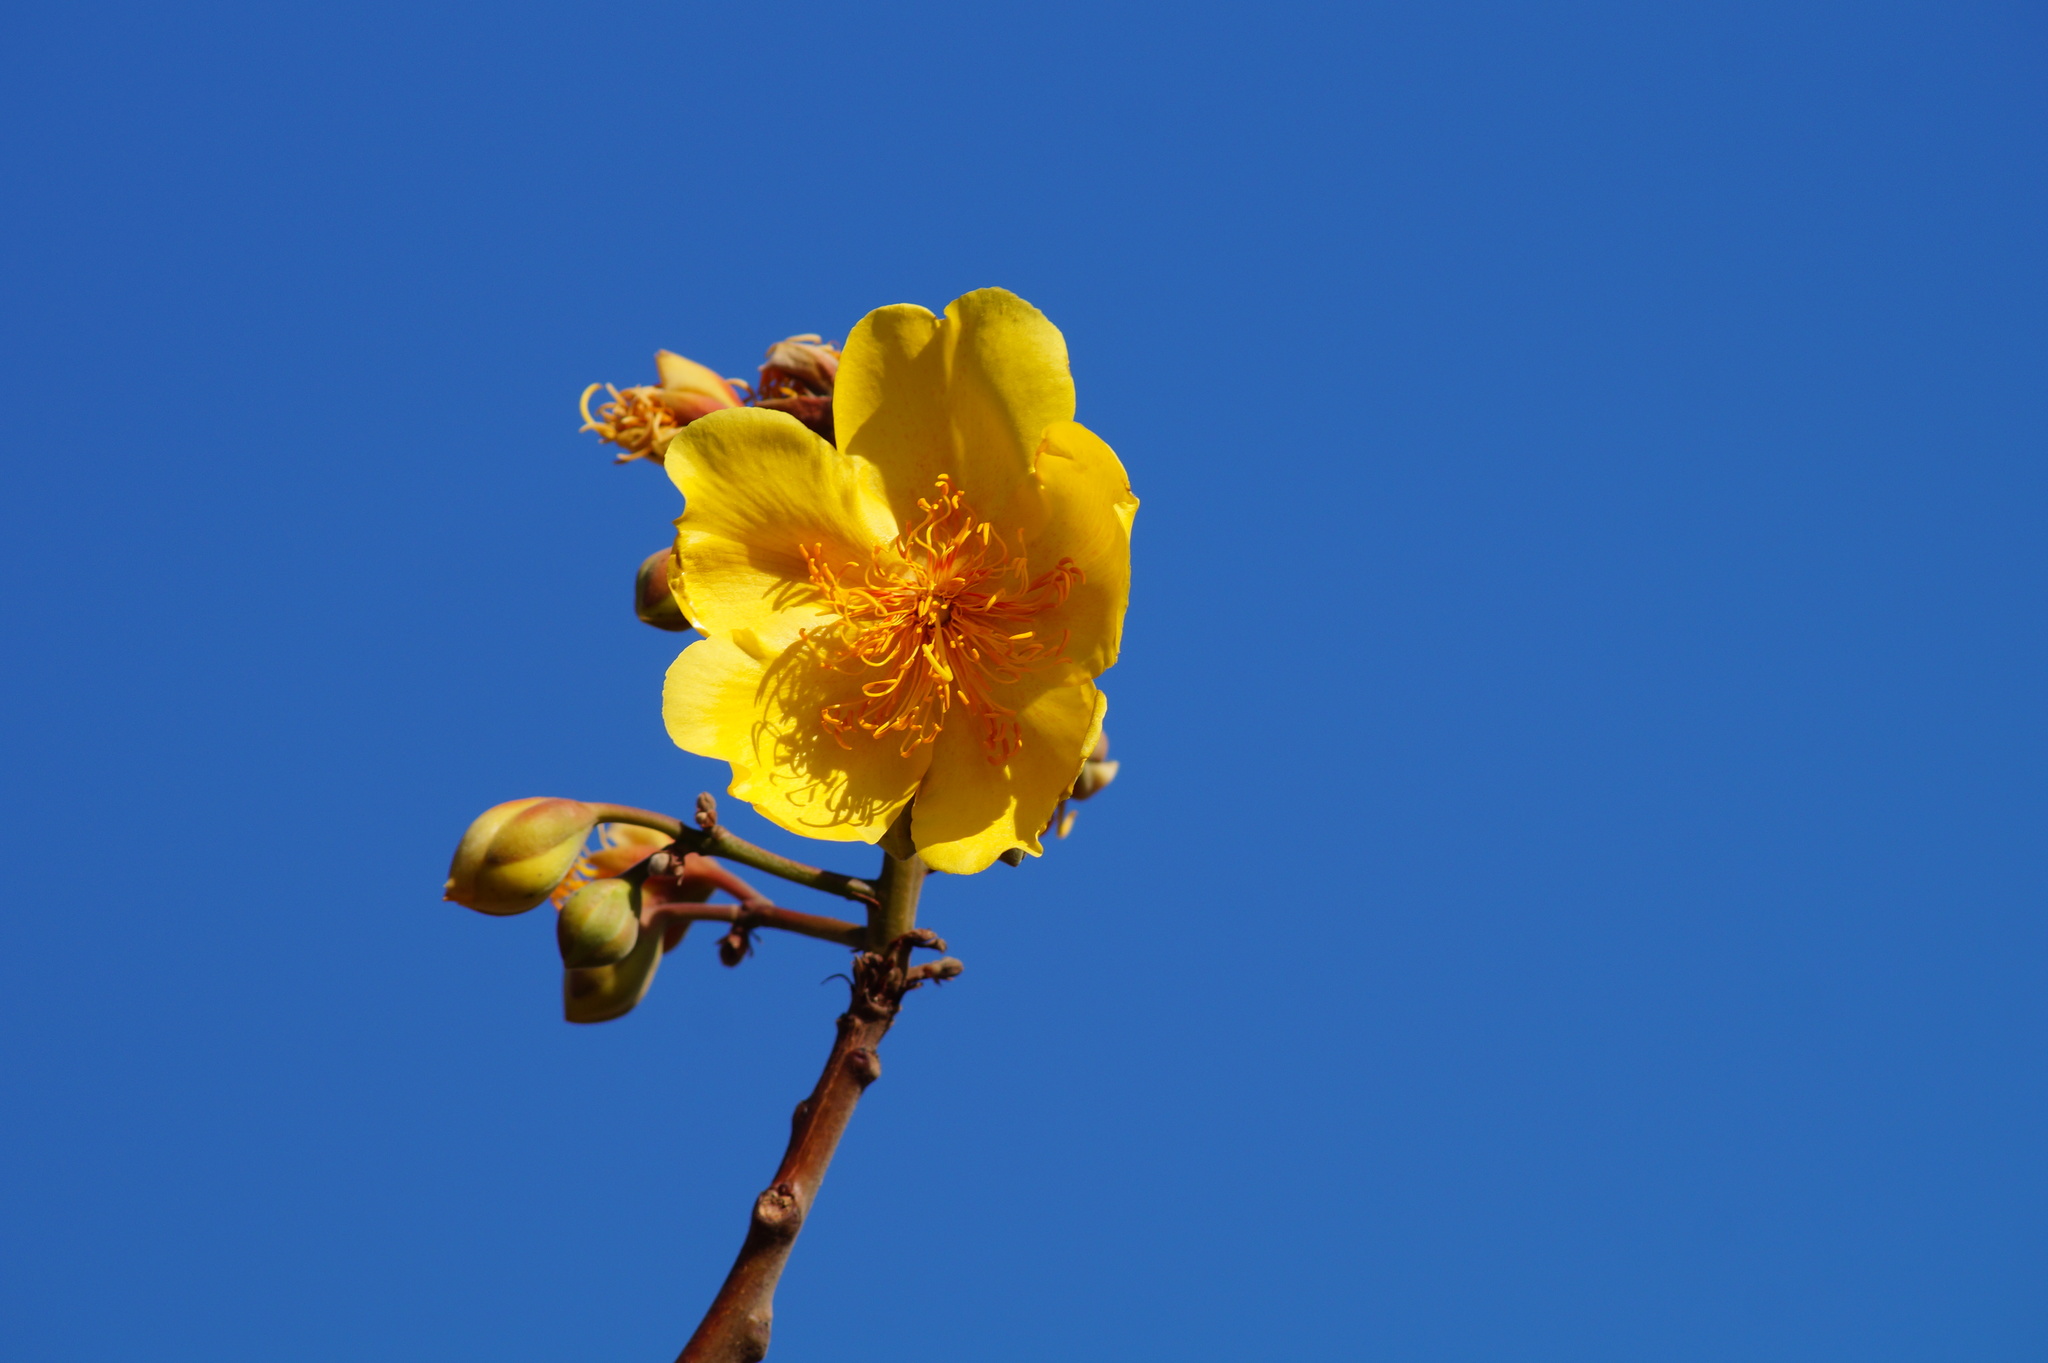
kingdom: Plantae
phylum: Tracheophyta
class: Magnoliopsida
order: Malvales
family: Cochlospermaceae
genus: Cochlospermum
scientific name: Cochlospermum vitifolium
